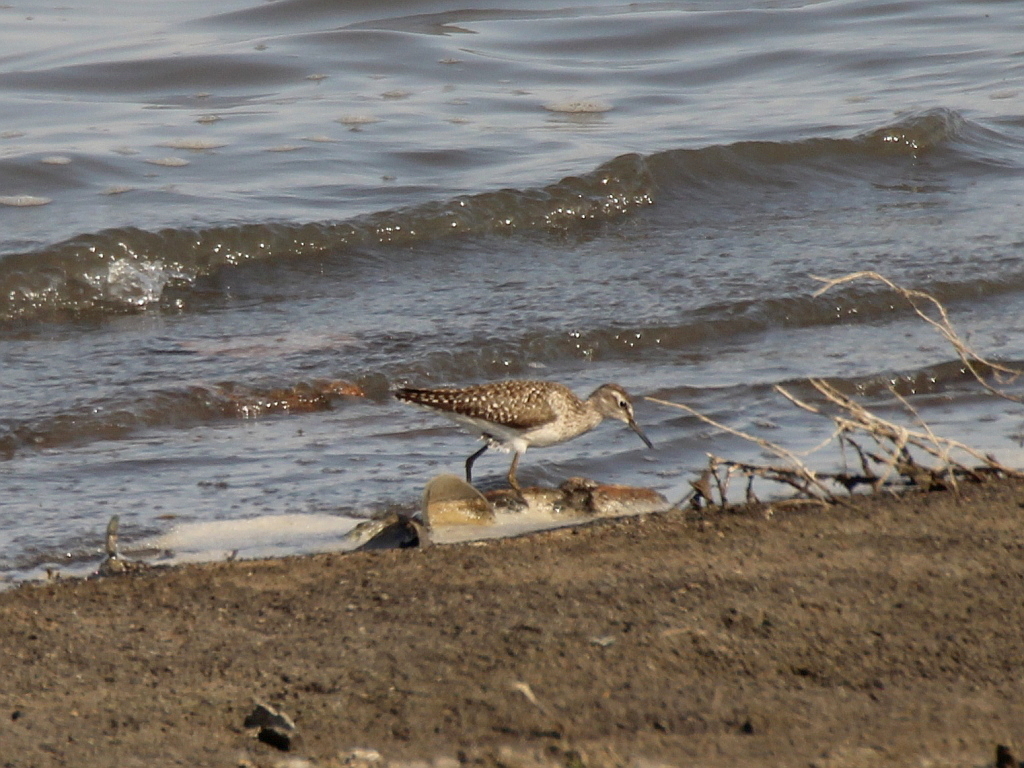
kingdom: Animalia
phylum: Chordata
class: Aves
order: Charadriiformes
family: Scolopacidae
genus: Tringa
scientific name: Tringa glareola
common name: Wood sandpiper
